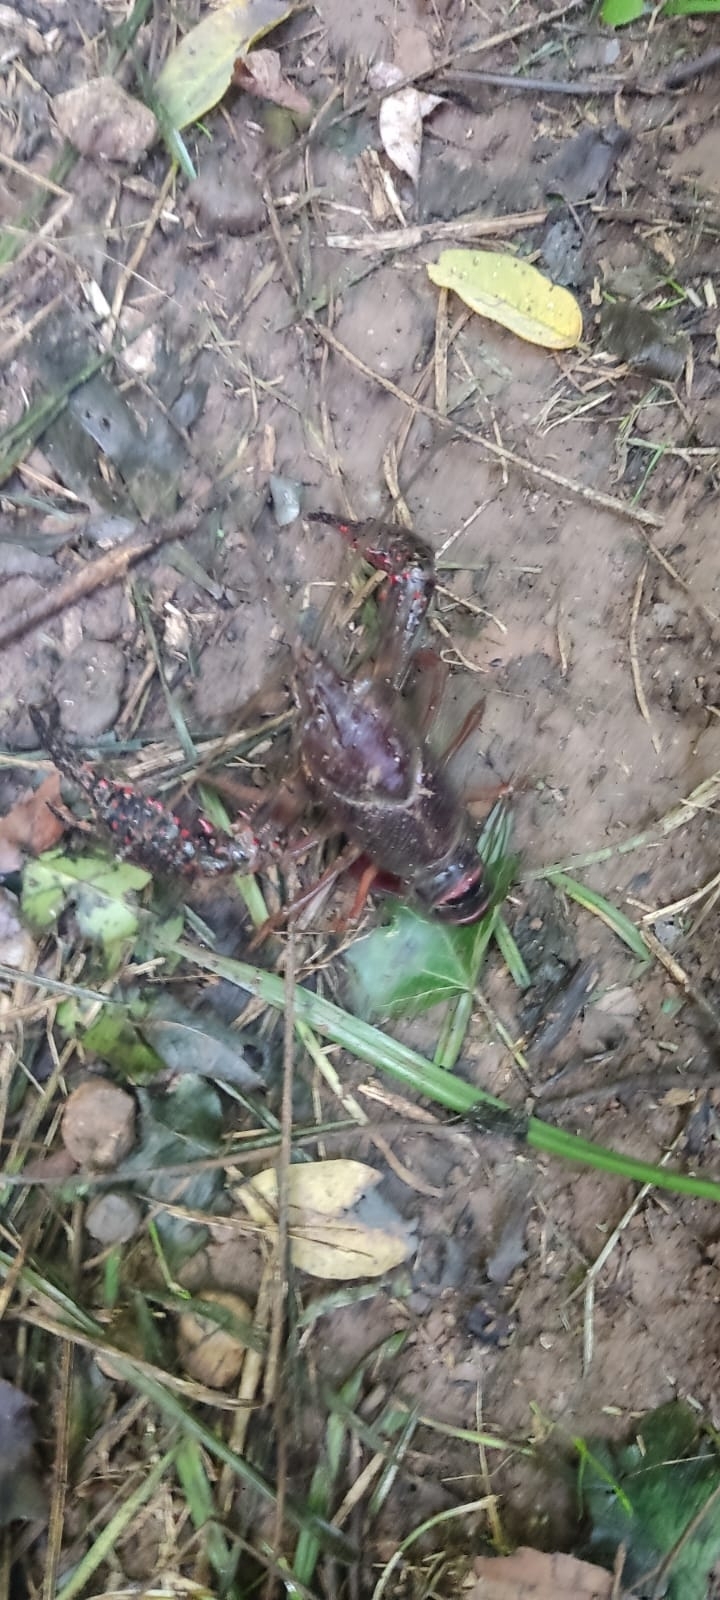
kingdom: Animalia
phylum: Arthropoda
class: Malacostraca
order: Decapoda
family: Cambaridae
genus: Procambarus
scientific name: Procambarus clarkii
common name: Red swamp crayfish
